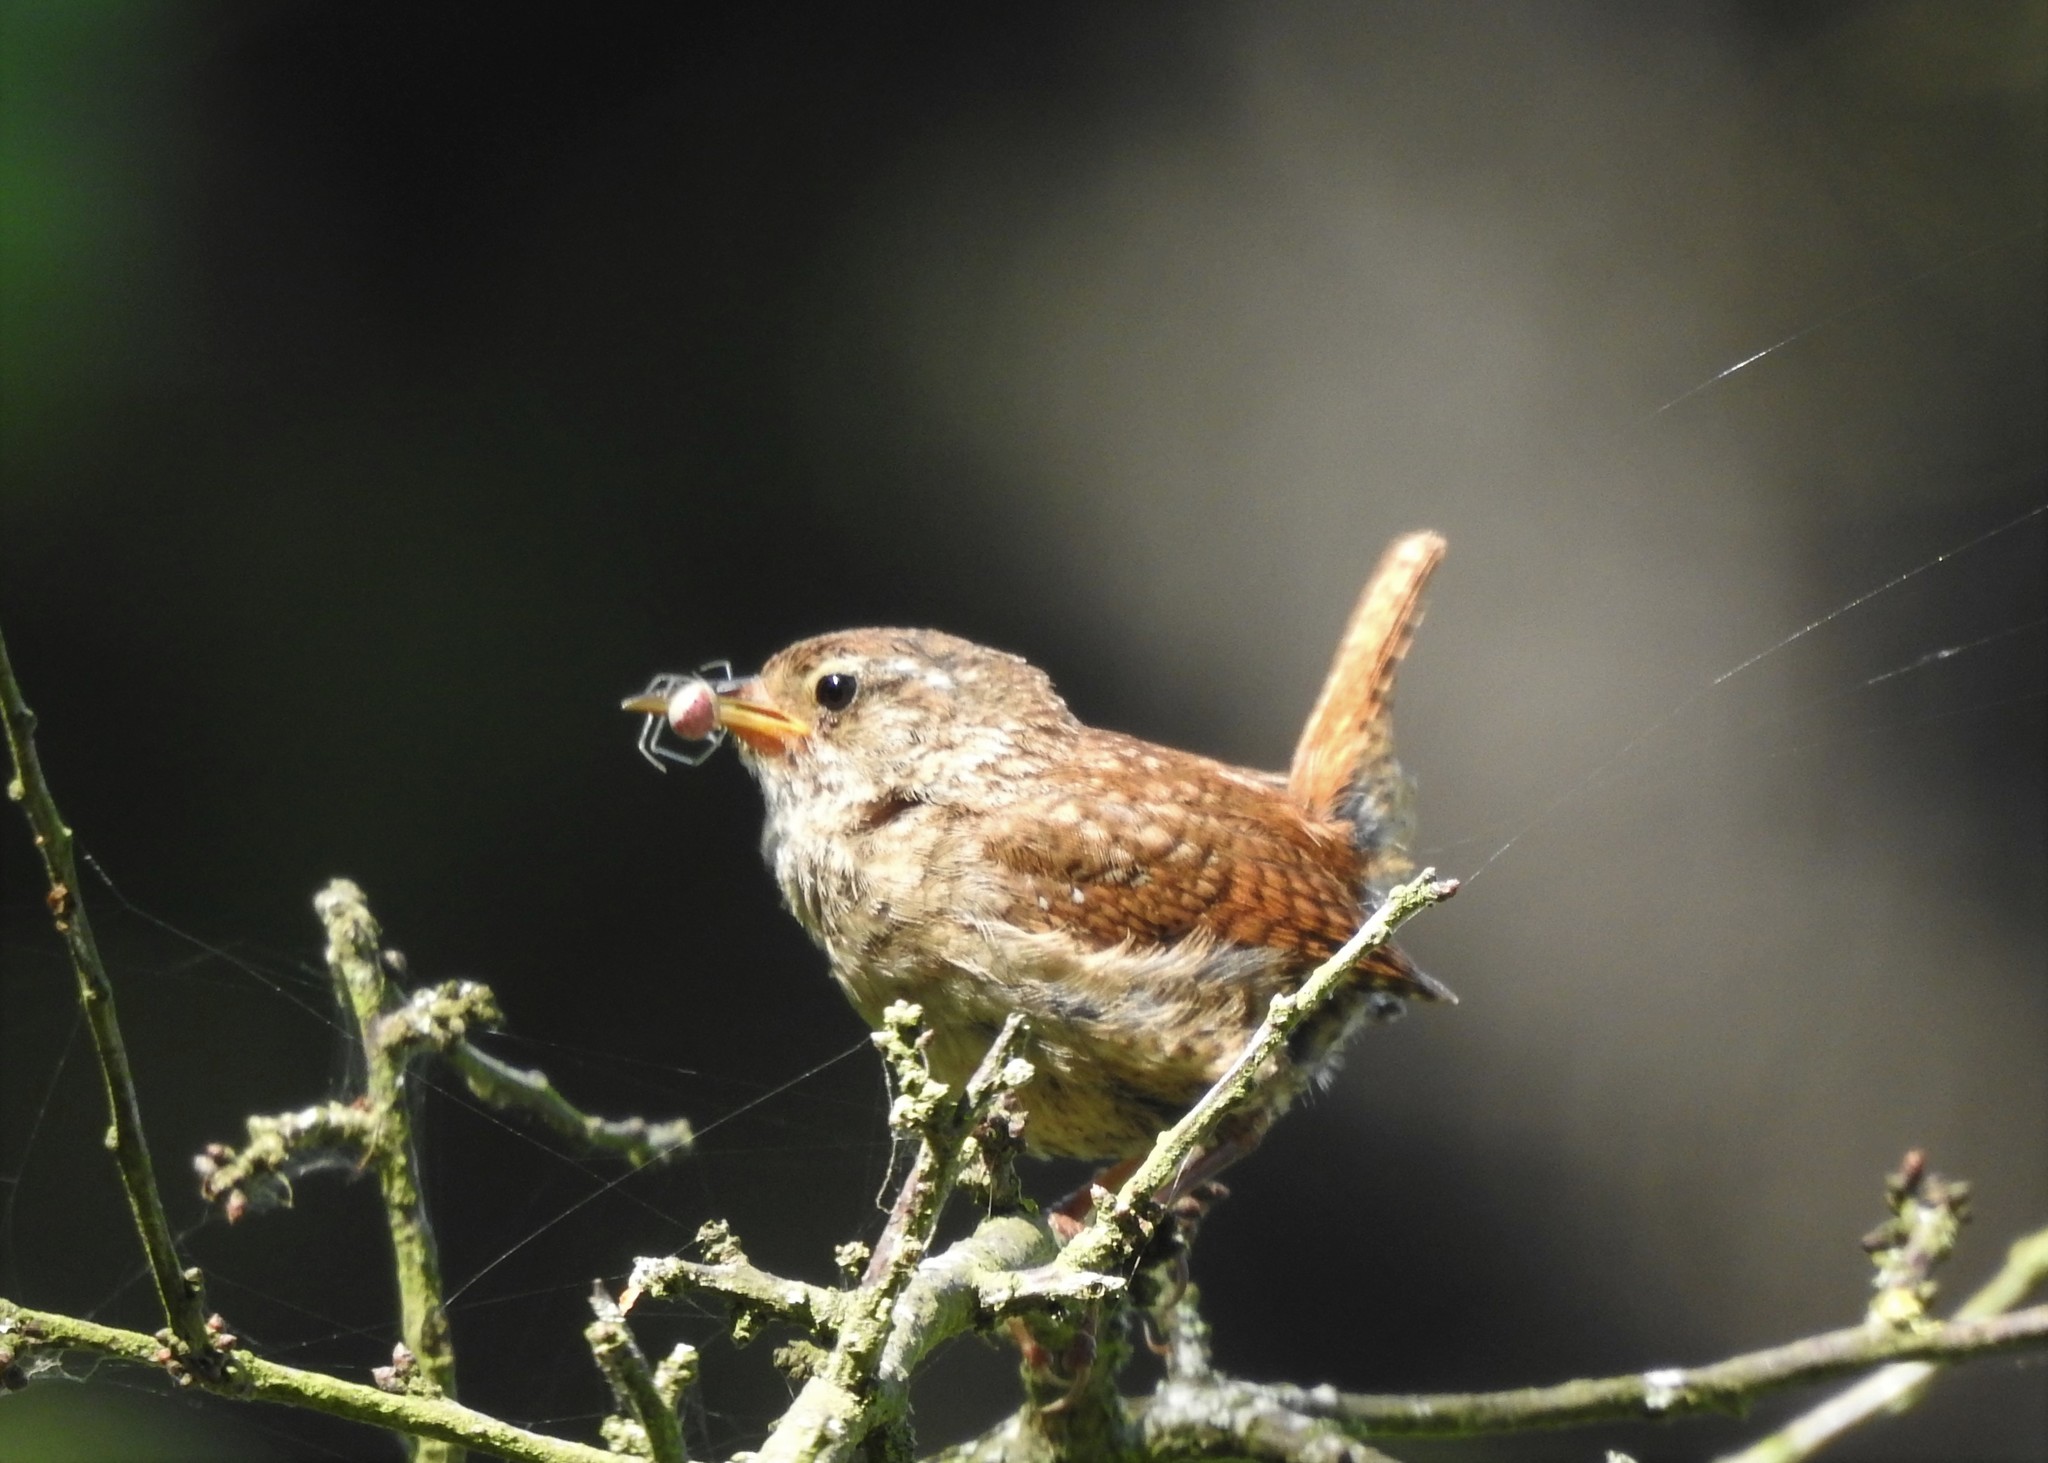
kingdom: Animalia
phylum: Chordata
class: Aves
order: Passeriformes
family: Troglodytidae
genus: Troglodytes
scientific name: Troglodytes troglodytes
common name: Eurasian wren
